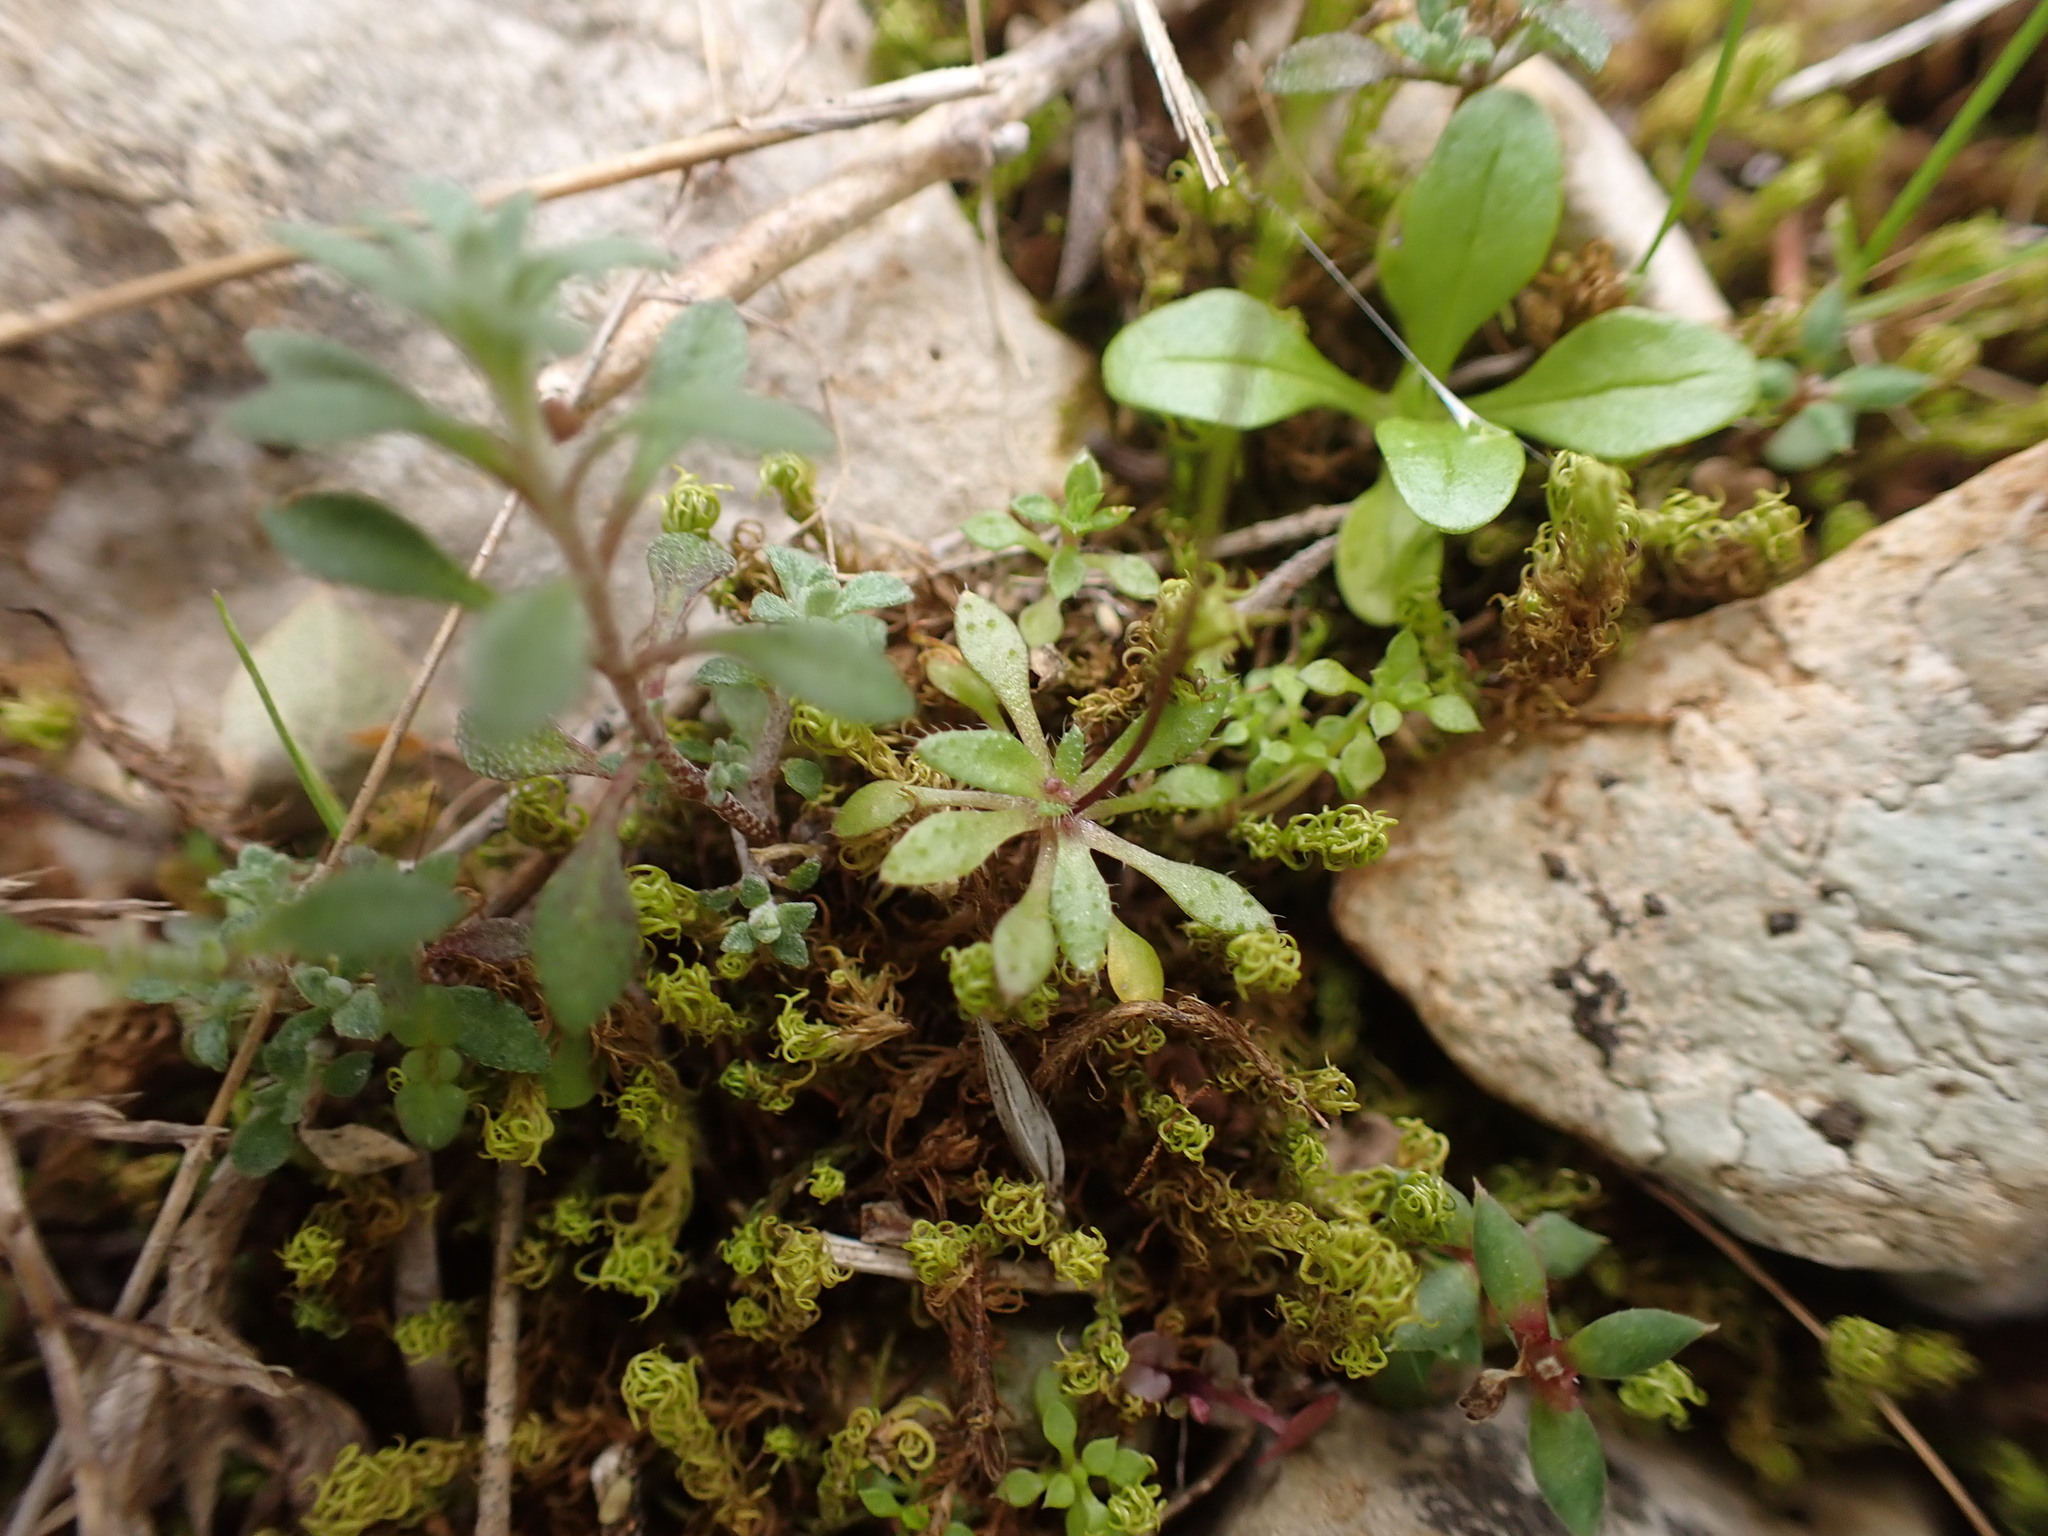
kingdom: Plantae
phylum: Tracheophyta
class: Magnoliopsida
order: Brassicales
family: Brassicaceae
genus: Draba
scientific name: Draba verna
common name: Spring draba
